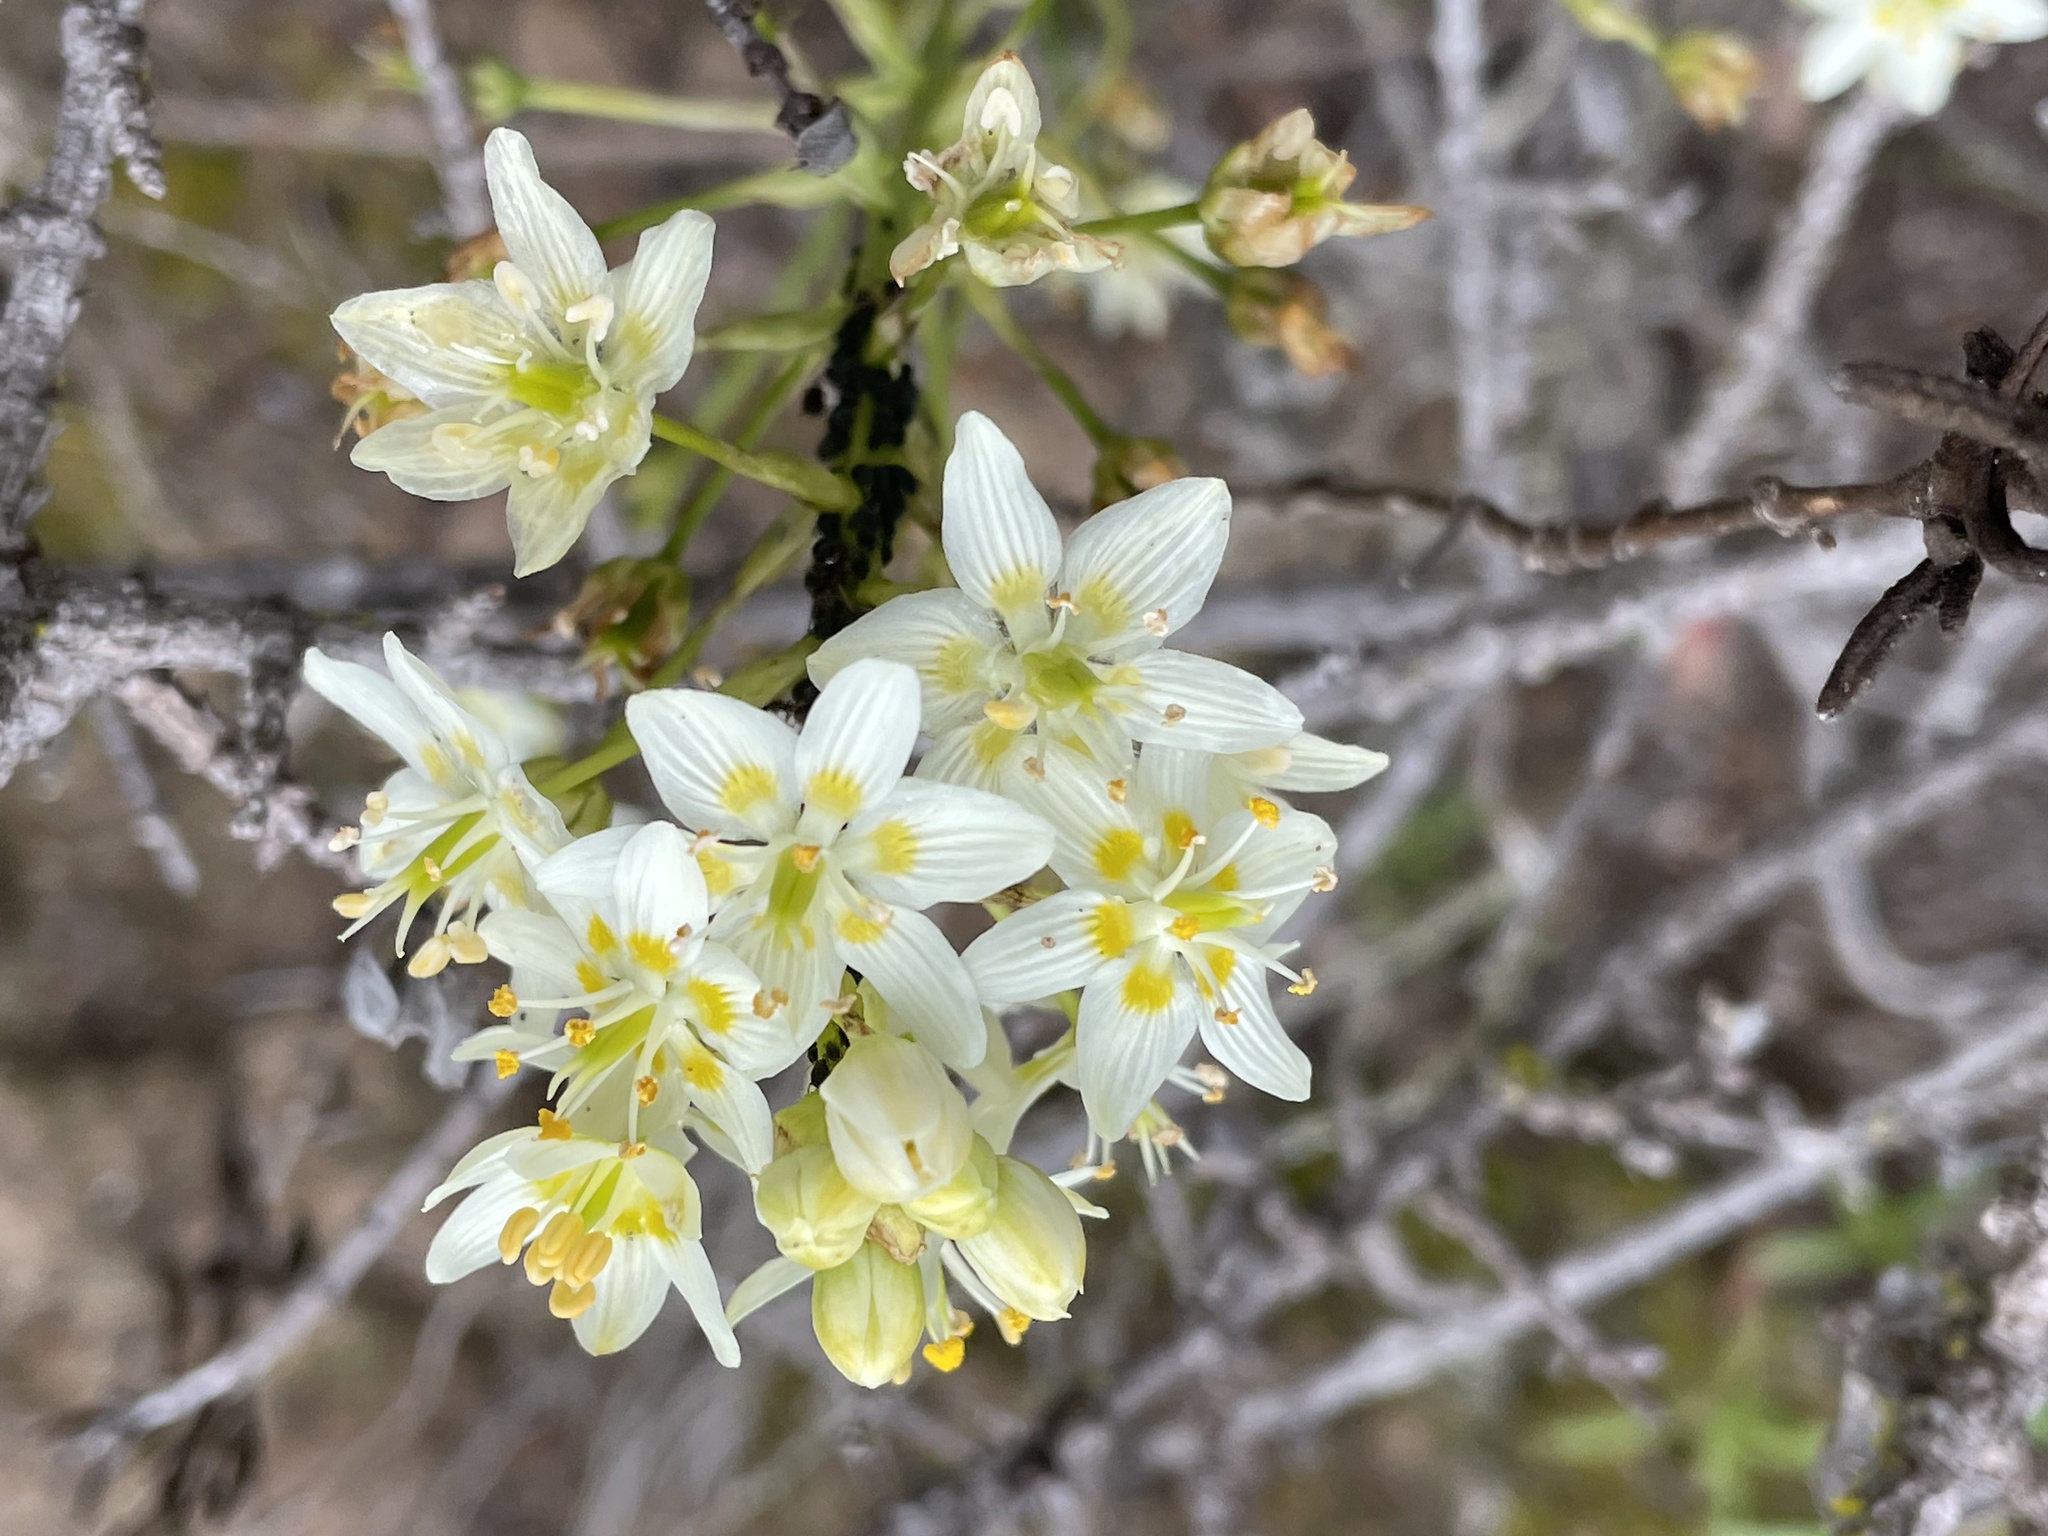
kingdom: Plantae
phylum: Tracheophyta
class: Liliopsida
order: Liliales
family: Melanthiaceae
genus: Toxicoscordion
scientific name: Toxicoscordion fremontii
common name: Fremont's death camas
